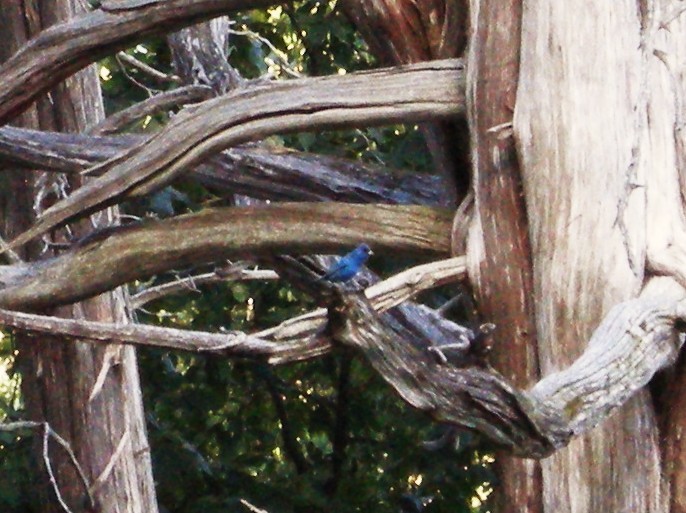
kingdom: Animalia
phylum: Chordata
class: Aves
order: Passeriformes
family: Cardinalidae
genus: Passerina
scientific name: Passerina cyanea
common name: Indigo bunting
